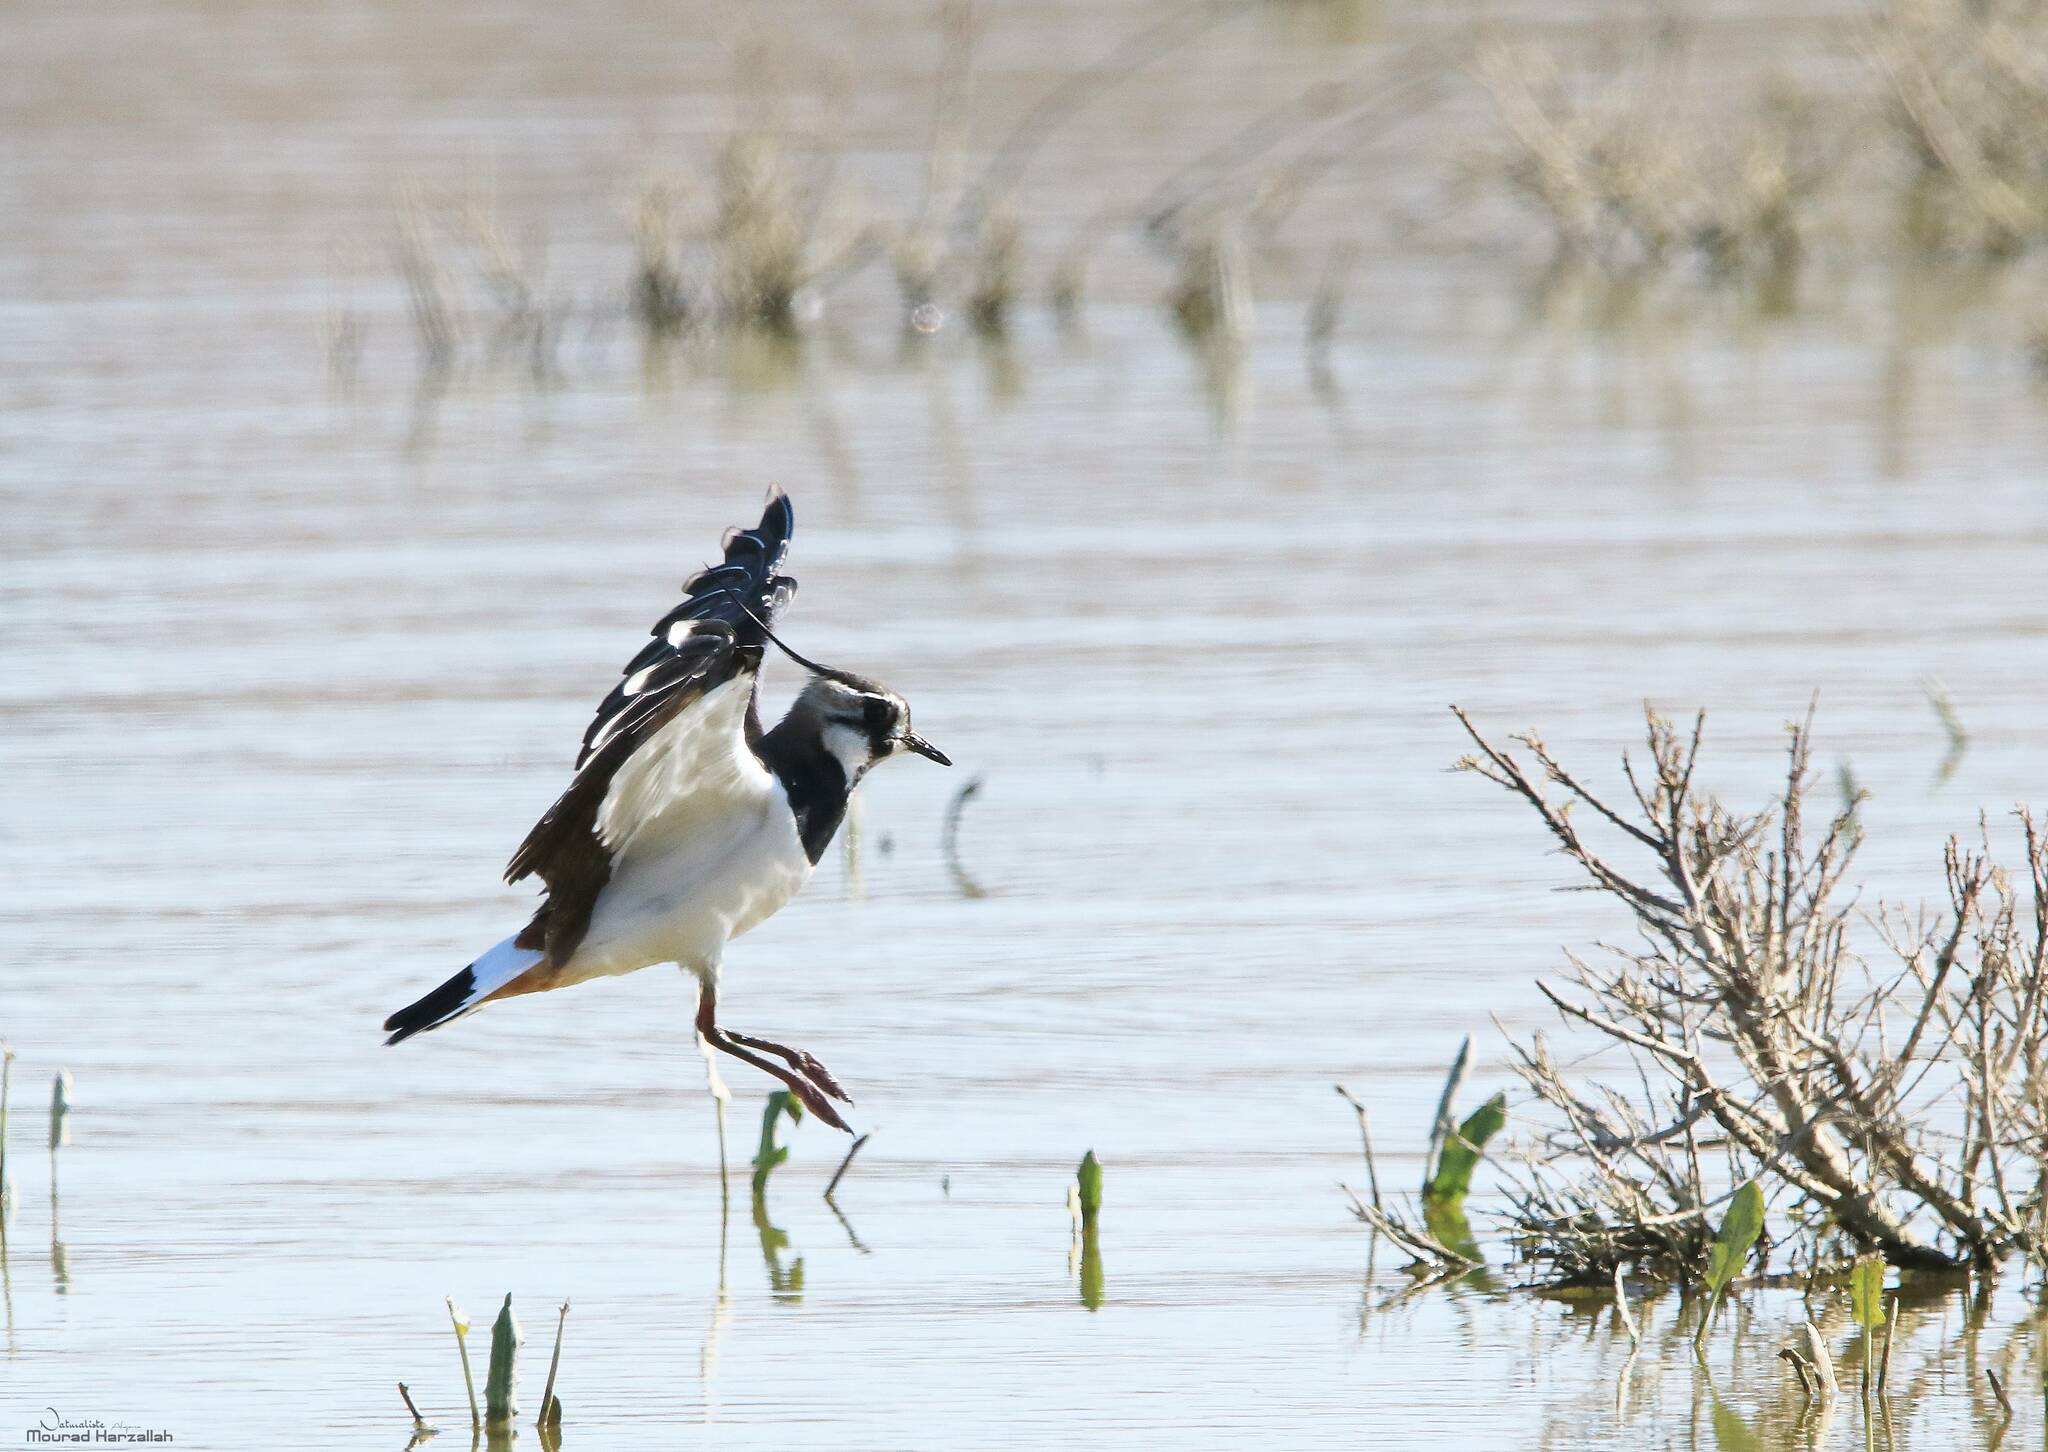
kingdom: Animalia
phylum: Chordata
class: Aves
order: Charadriiformes
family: Charadriidae
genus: Vanellus
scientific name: Vanellus vanellus
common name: Northern lapwing
